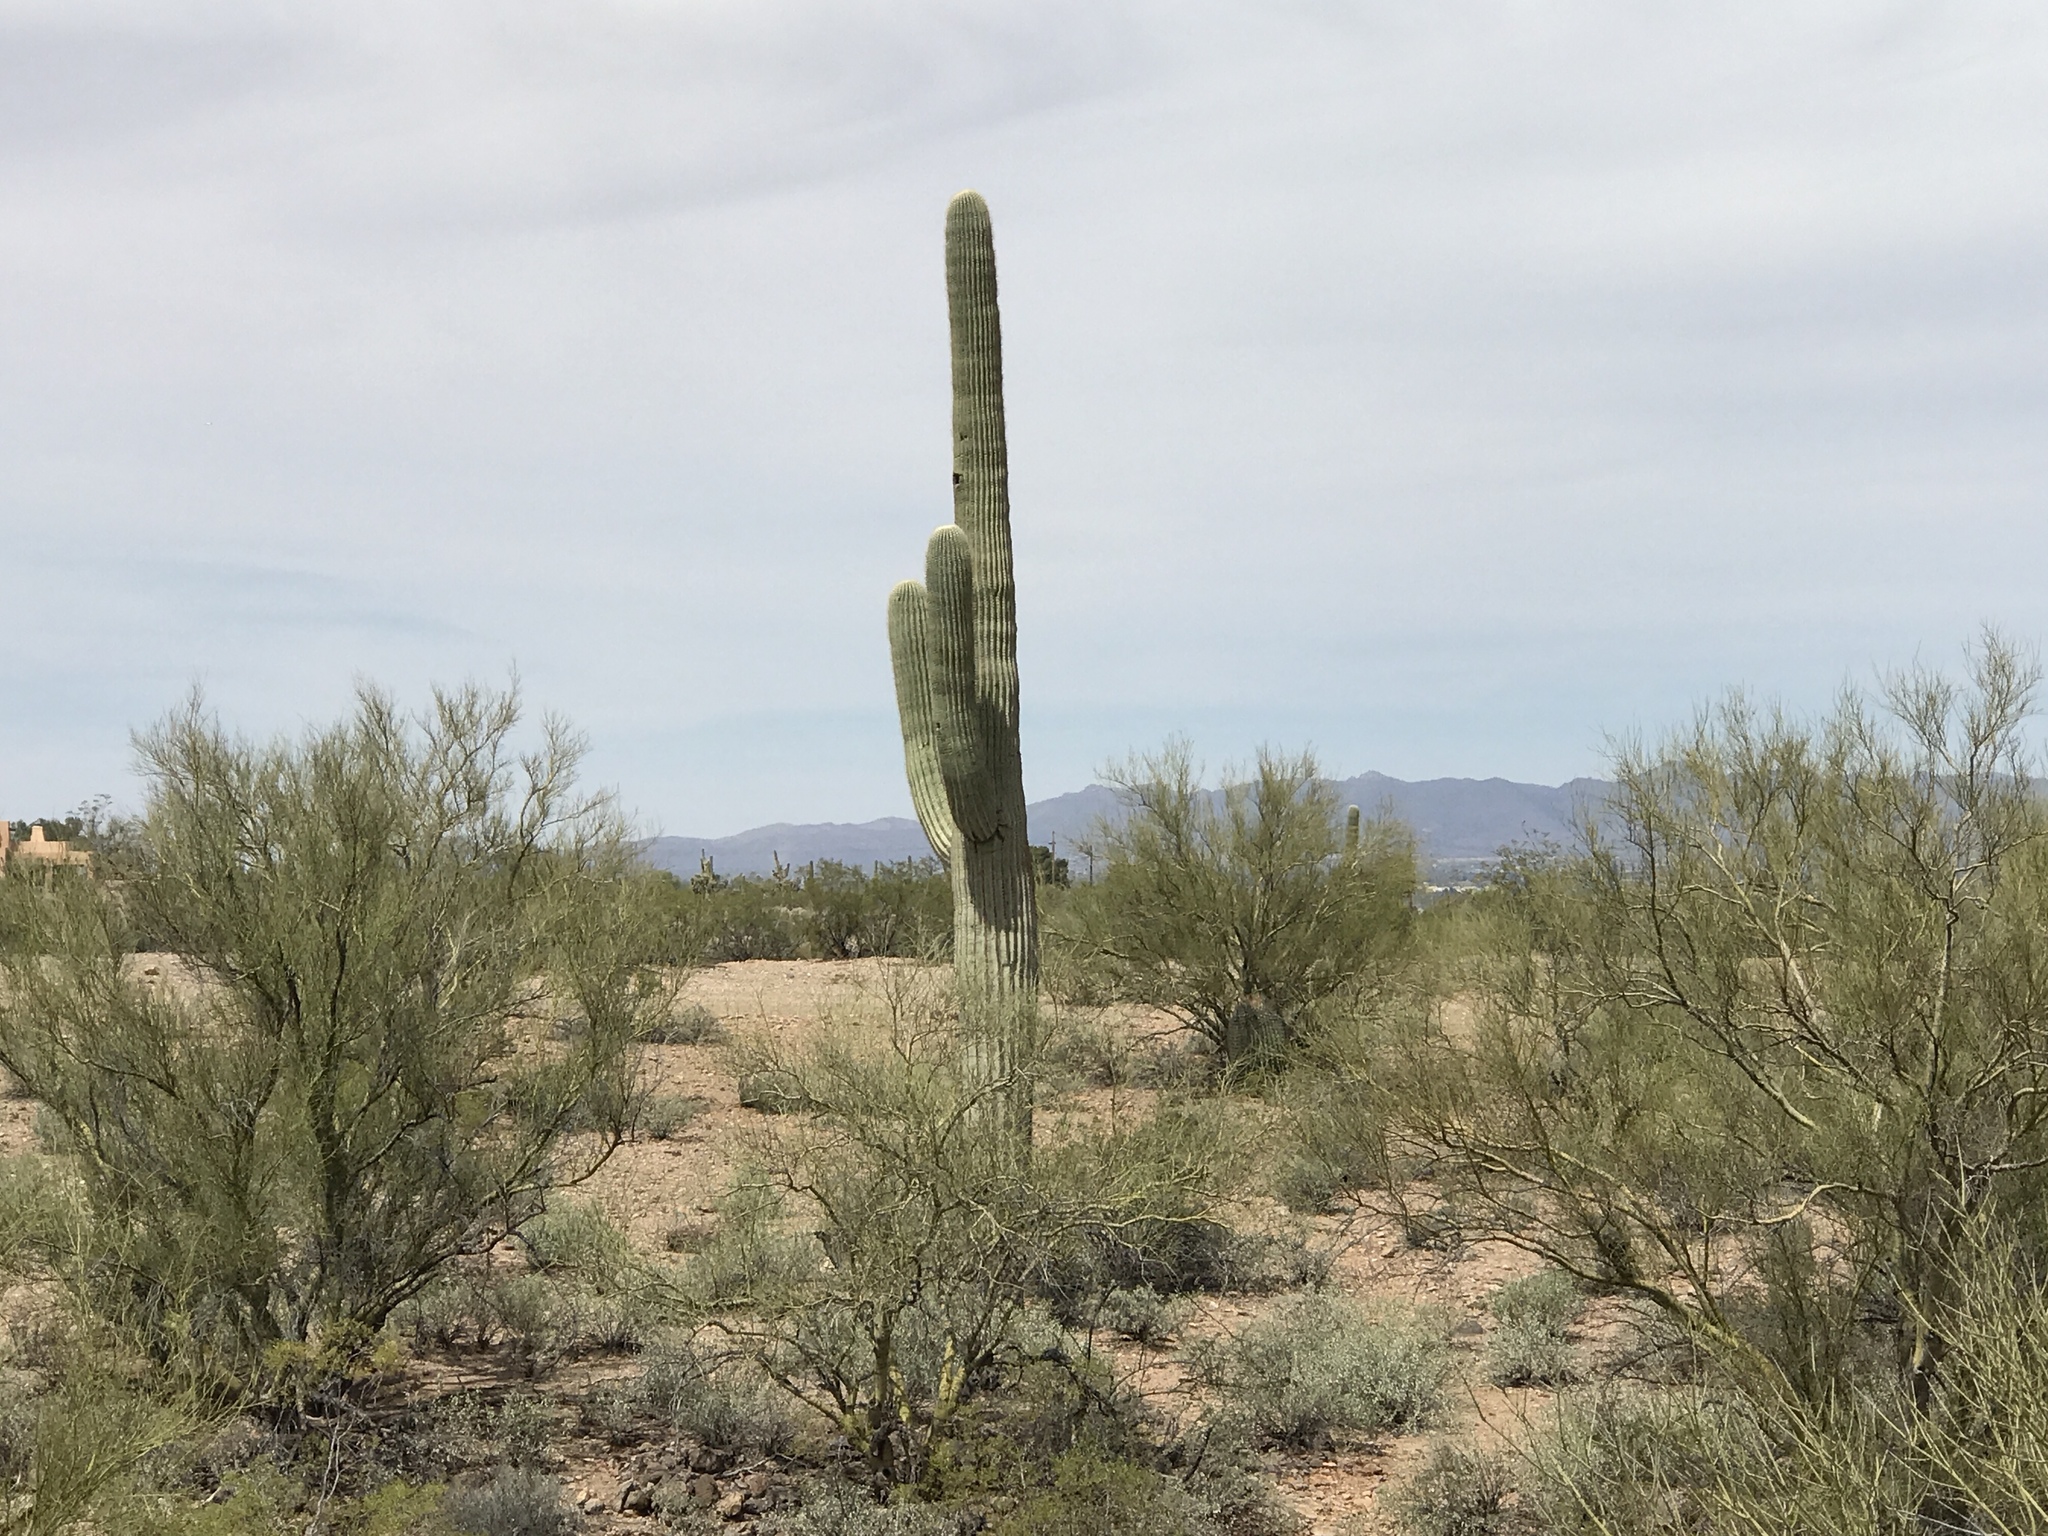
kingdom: Plantae
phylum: Tracheophyta
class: Magnoliopsida
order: Caryophyllales
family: Cactaceae
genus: Carnegiea
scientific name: Carnegiea gigantea
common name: Saguaro
